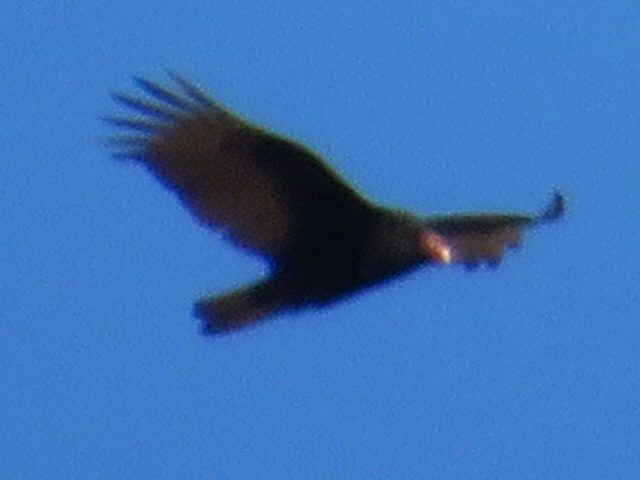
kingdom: Animalia
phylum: Chordata
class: Aves
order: Accipitriformes
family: Cathartidae
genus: Cathartes
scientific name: Cathartes aura
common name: Turkey vulture
